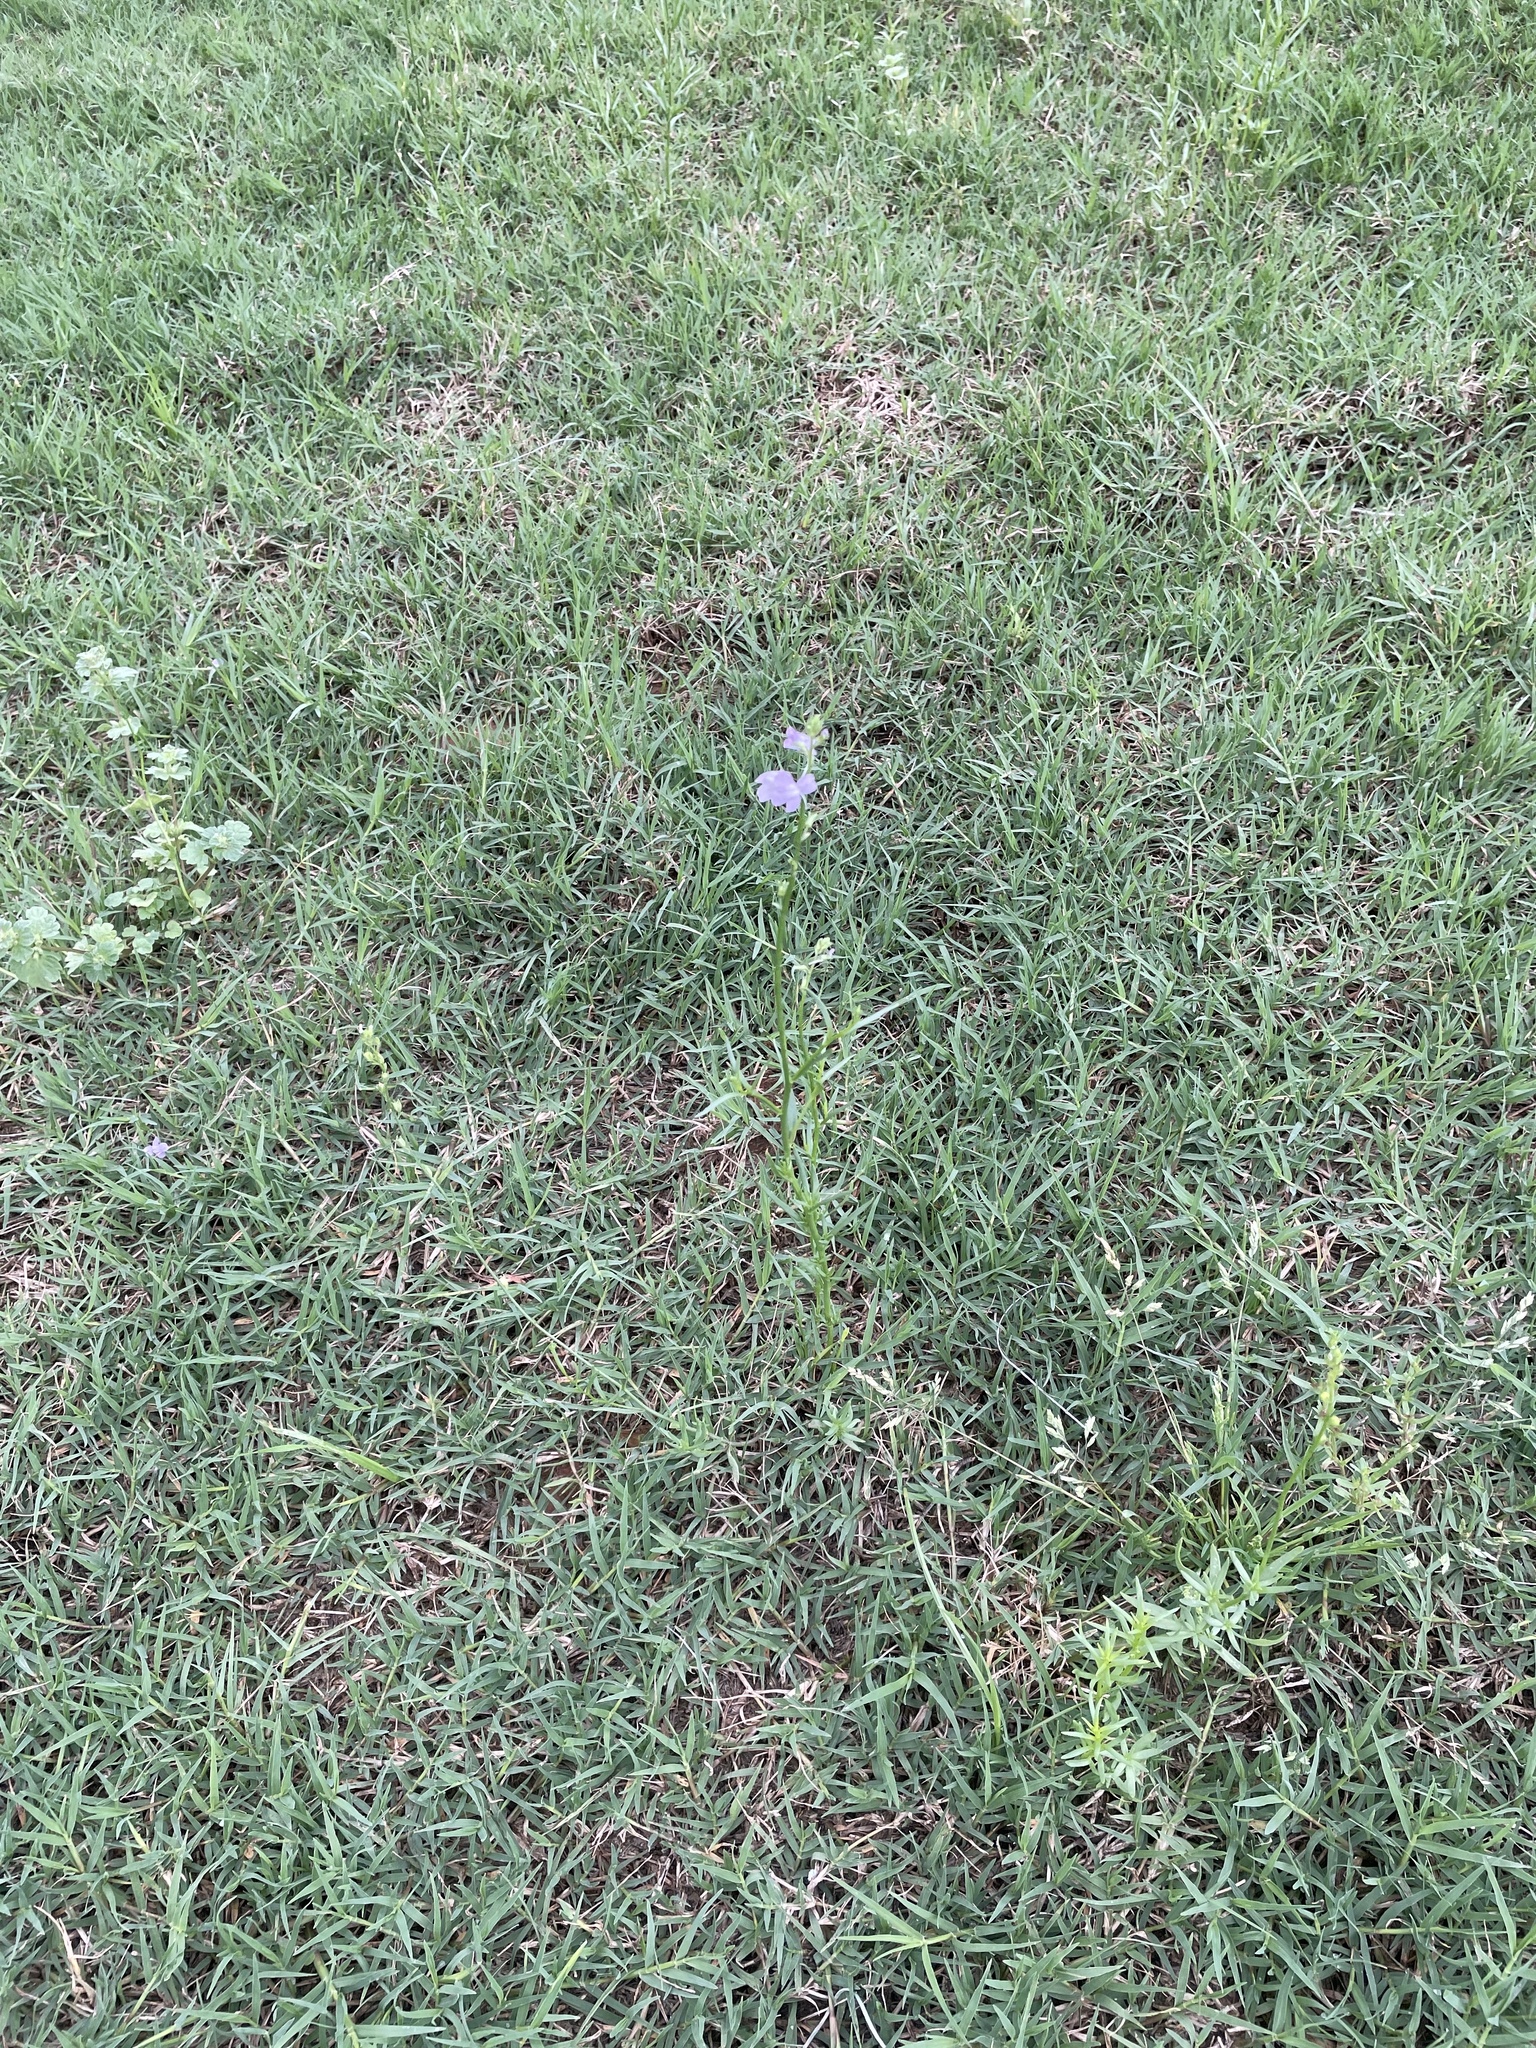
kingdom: Plantae
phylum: Tracheophyta
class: Magnoliopsida
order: Lamiales
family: Plantaginaceae
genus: Nuttallanthus
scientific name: Nuttallanthus texanus
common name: Texas toadflax
